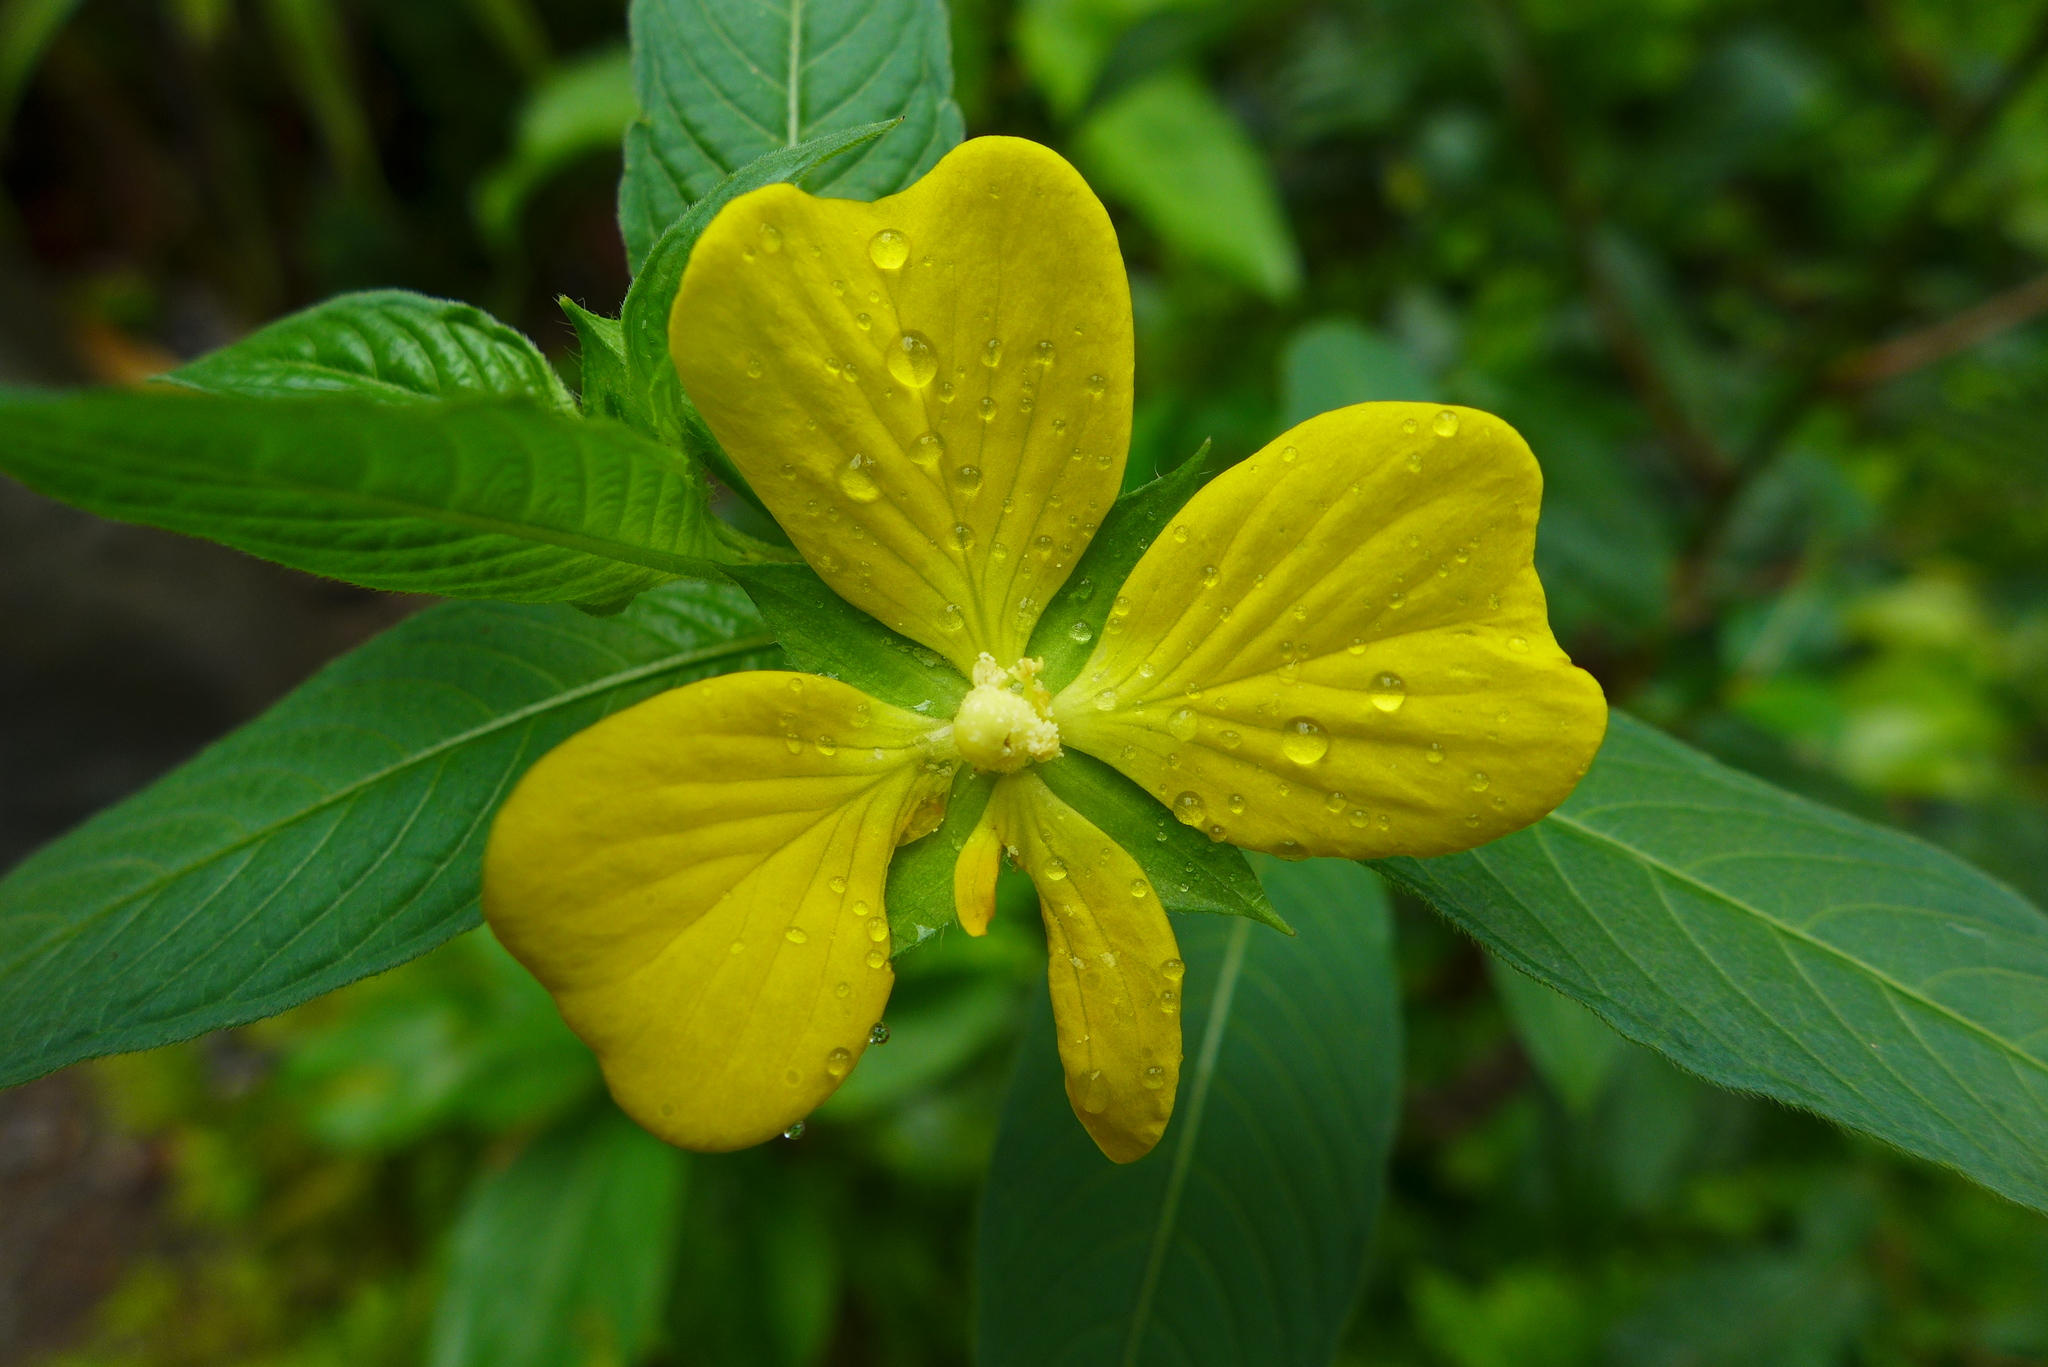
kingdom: Plantae
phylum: Tracheophyta
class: Magnoliopsida
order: Myrtales
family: Onagraceae
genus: Ludwigia
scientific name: Ludwigia octovalvis
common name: Water-primrose
